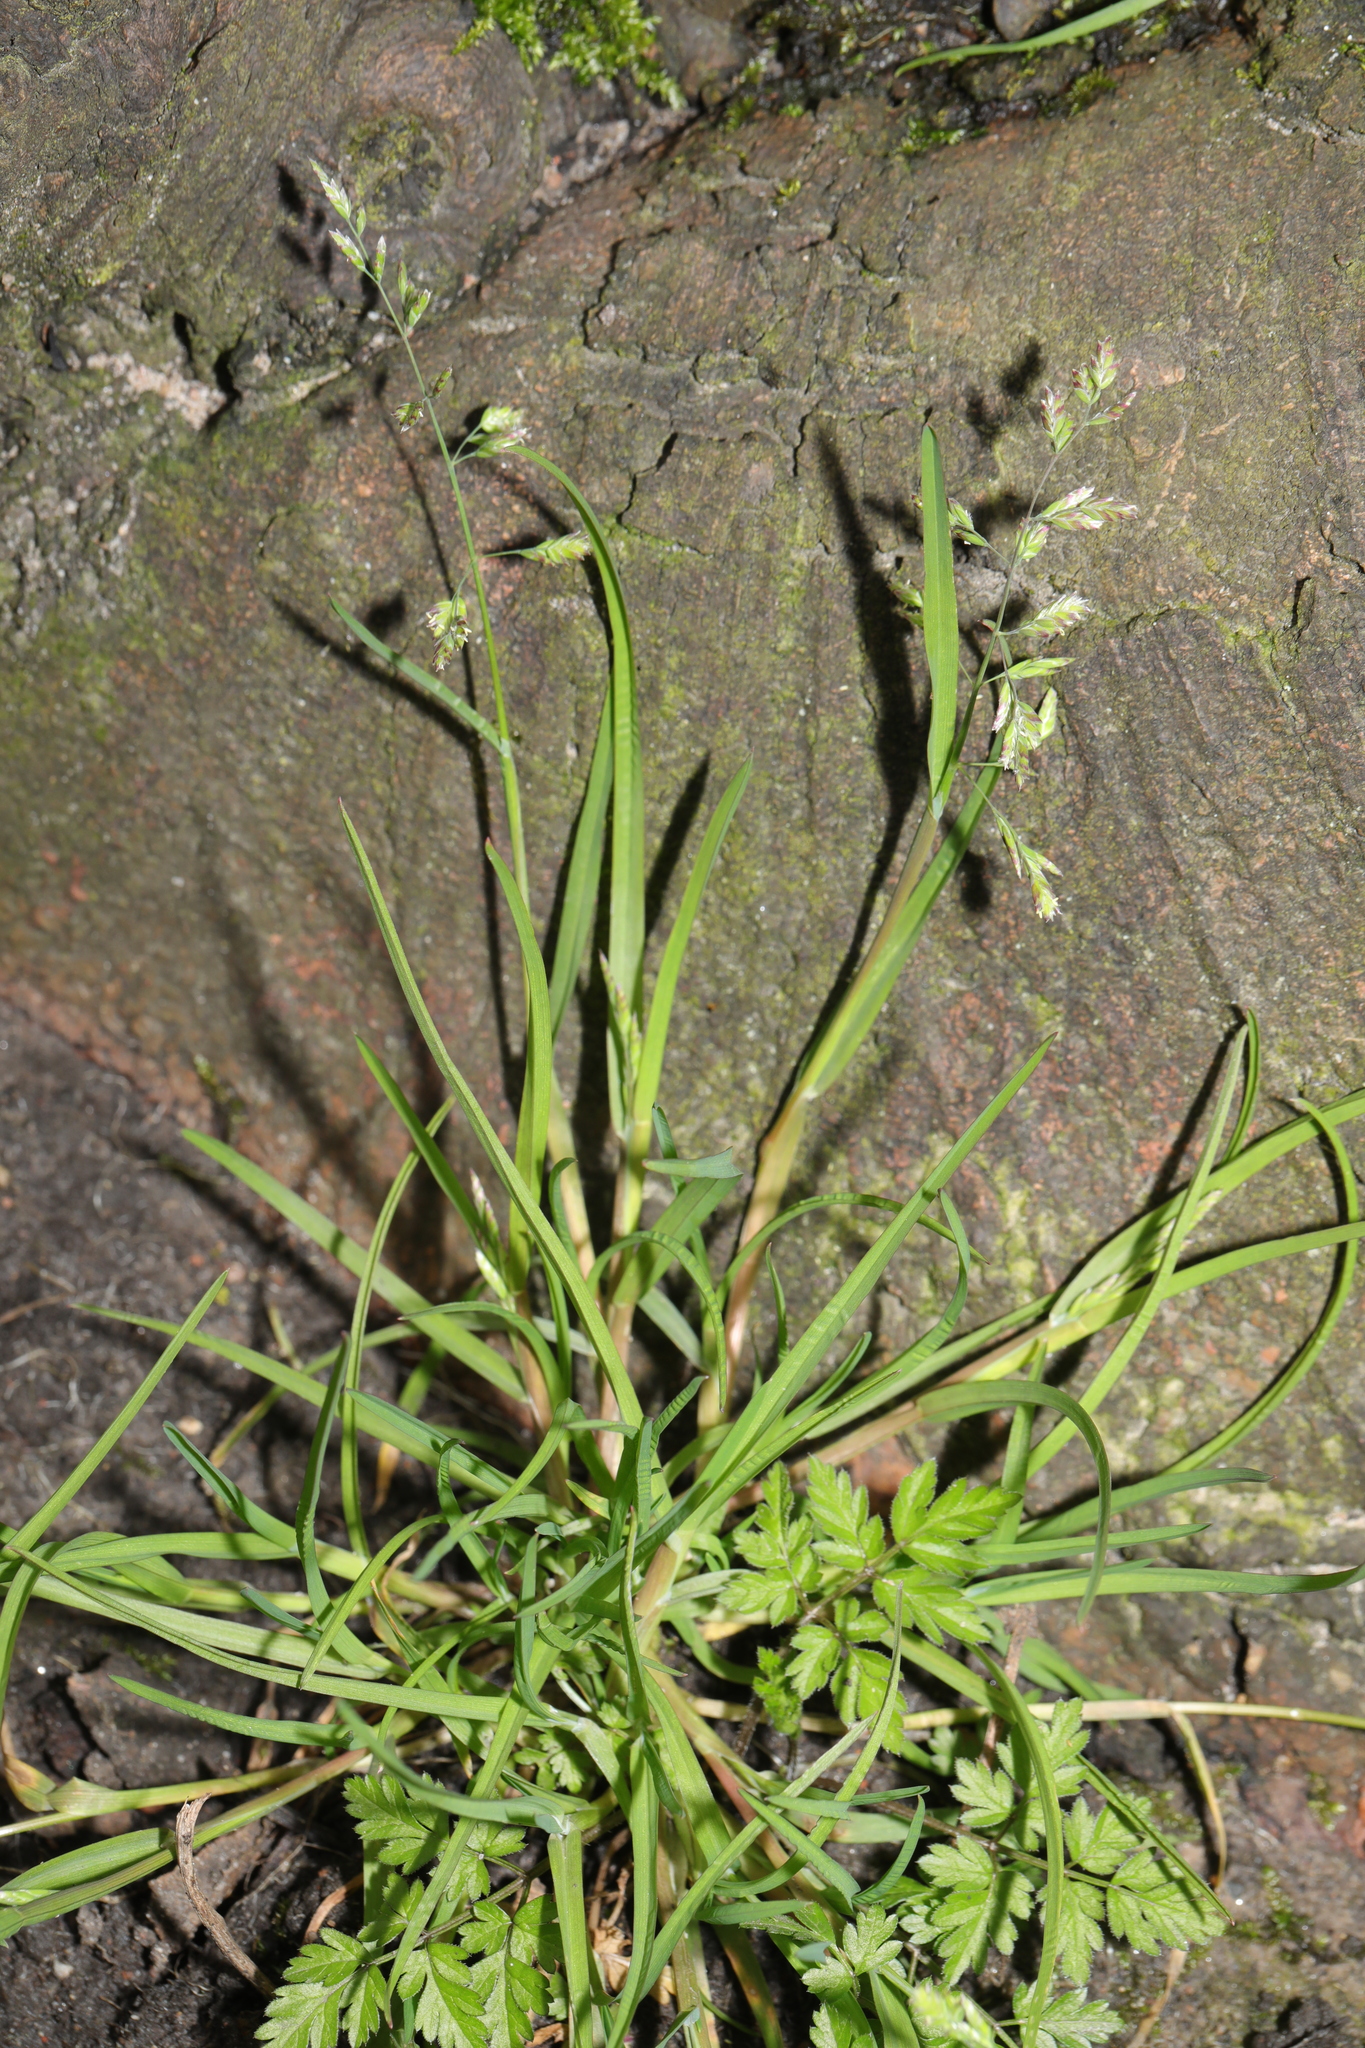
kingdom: Plantae
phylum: Tracheophyta
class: Liliopsida
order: Poales
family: Poaceae
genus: Poa
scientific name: Poa annua
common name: Annual bluegrass
